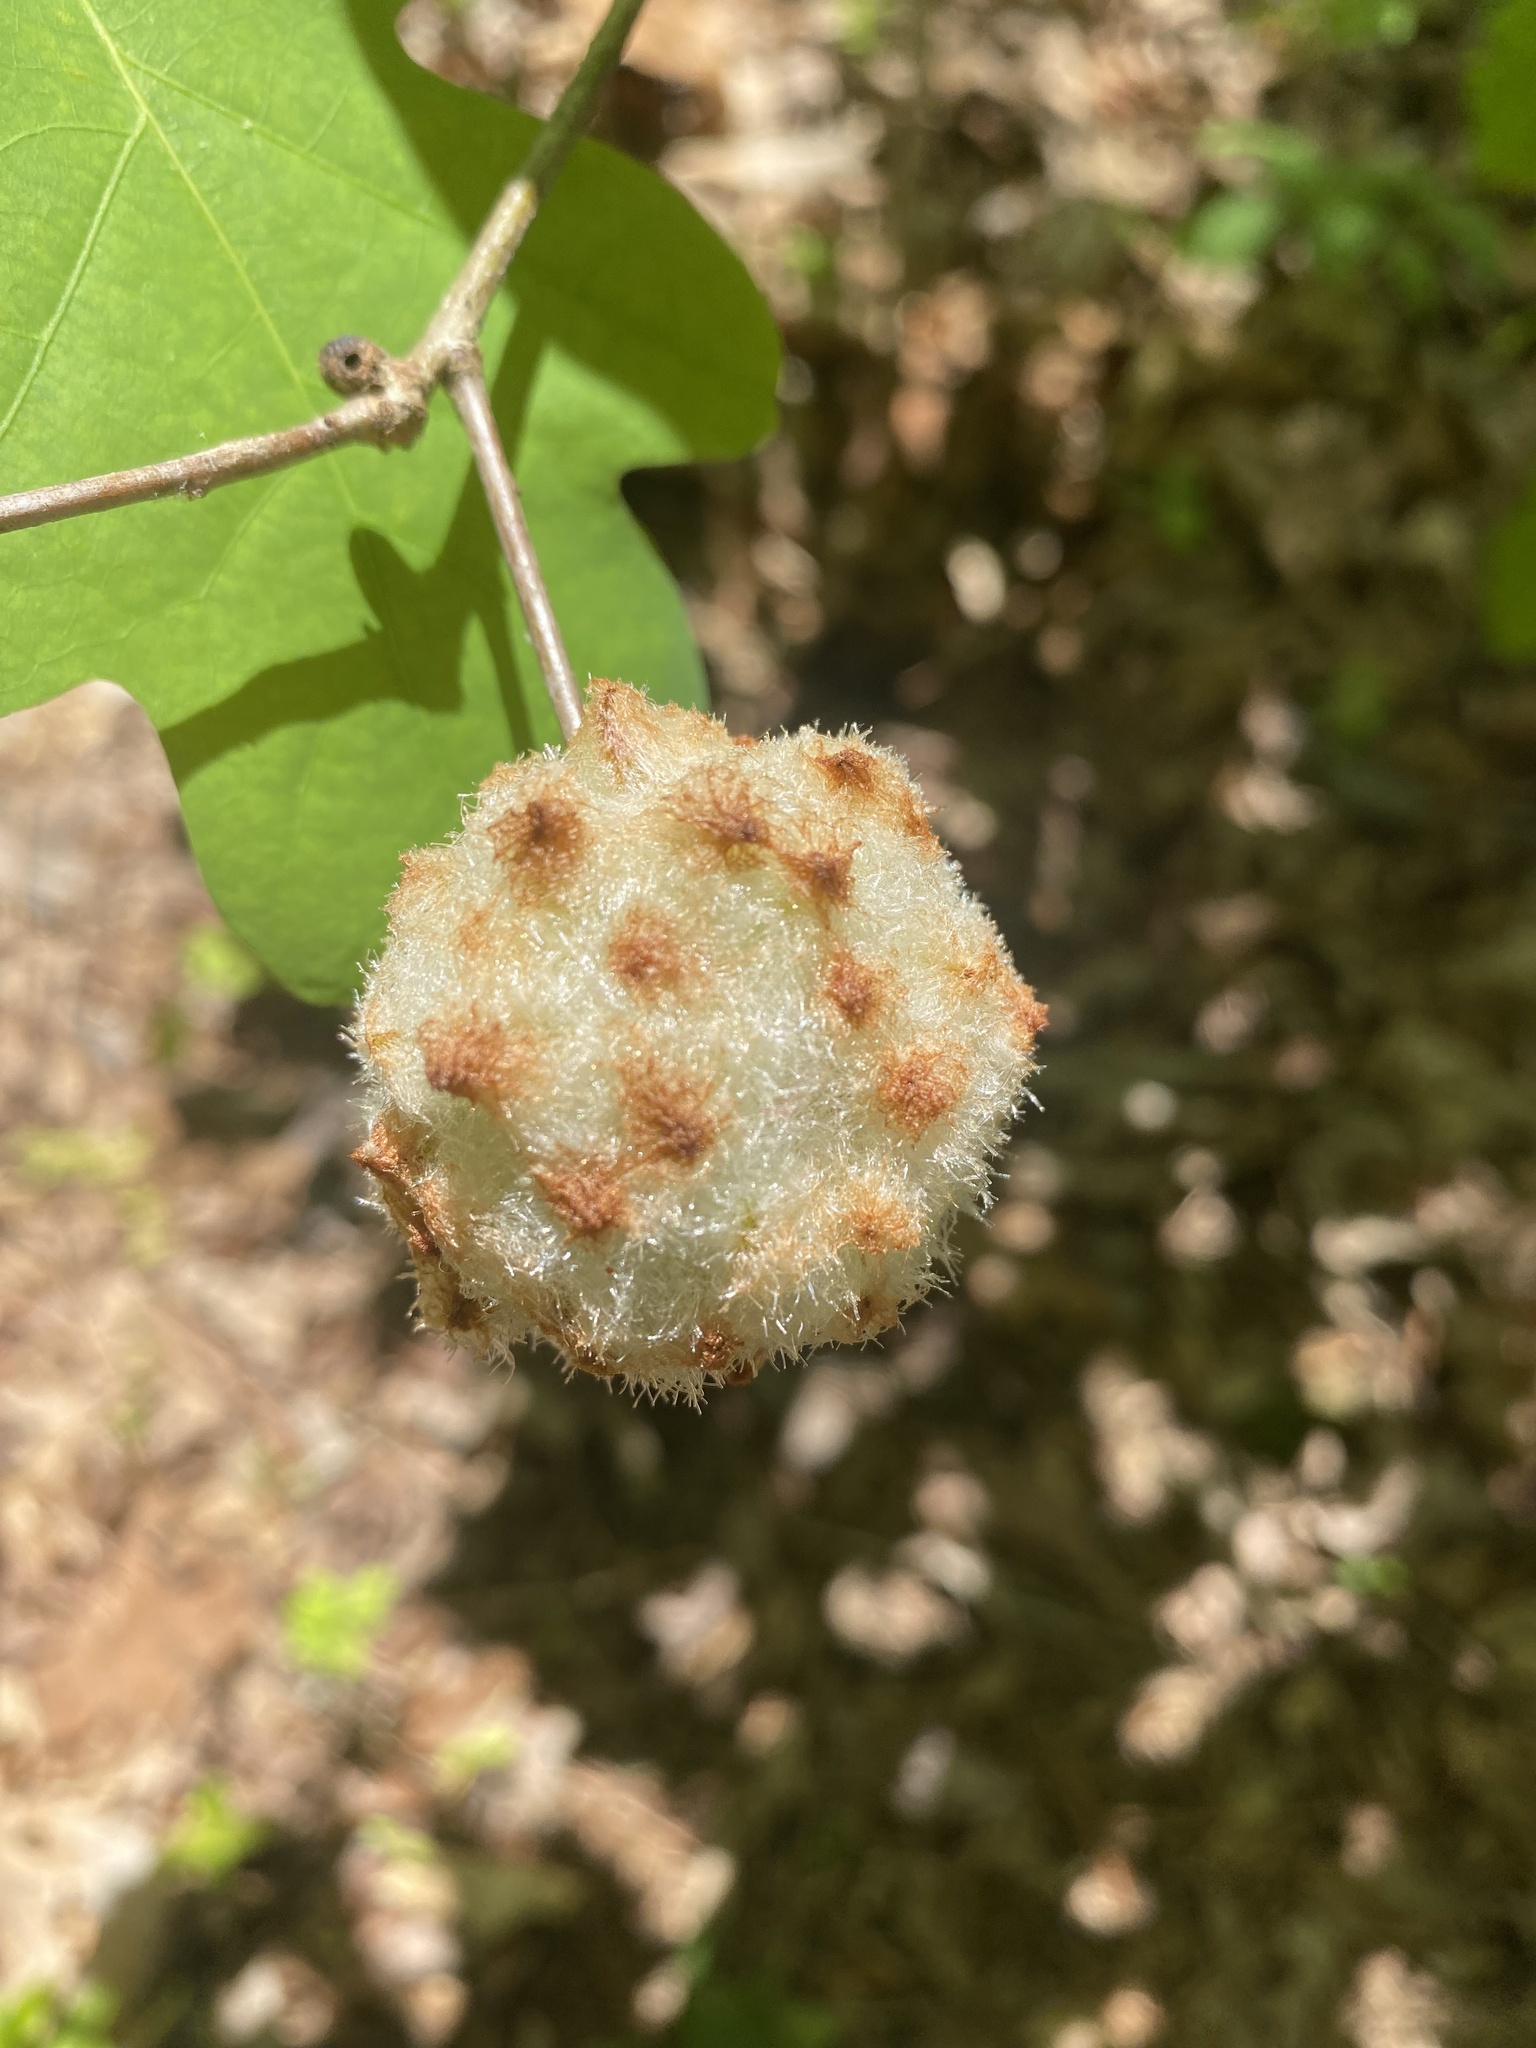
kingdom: Animalia
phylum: Arthropoda
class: Insecta
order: Hymenoptera
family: Cynipidae
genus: Callirhytis
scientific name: Callirhytis
